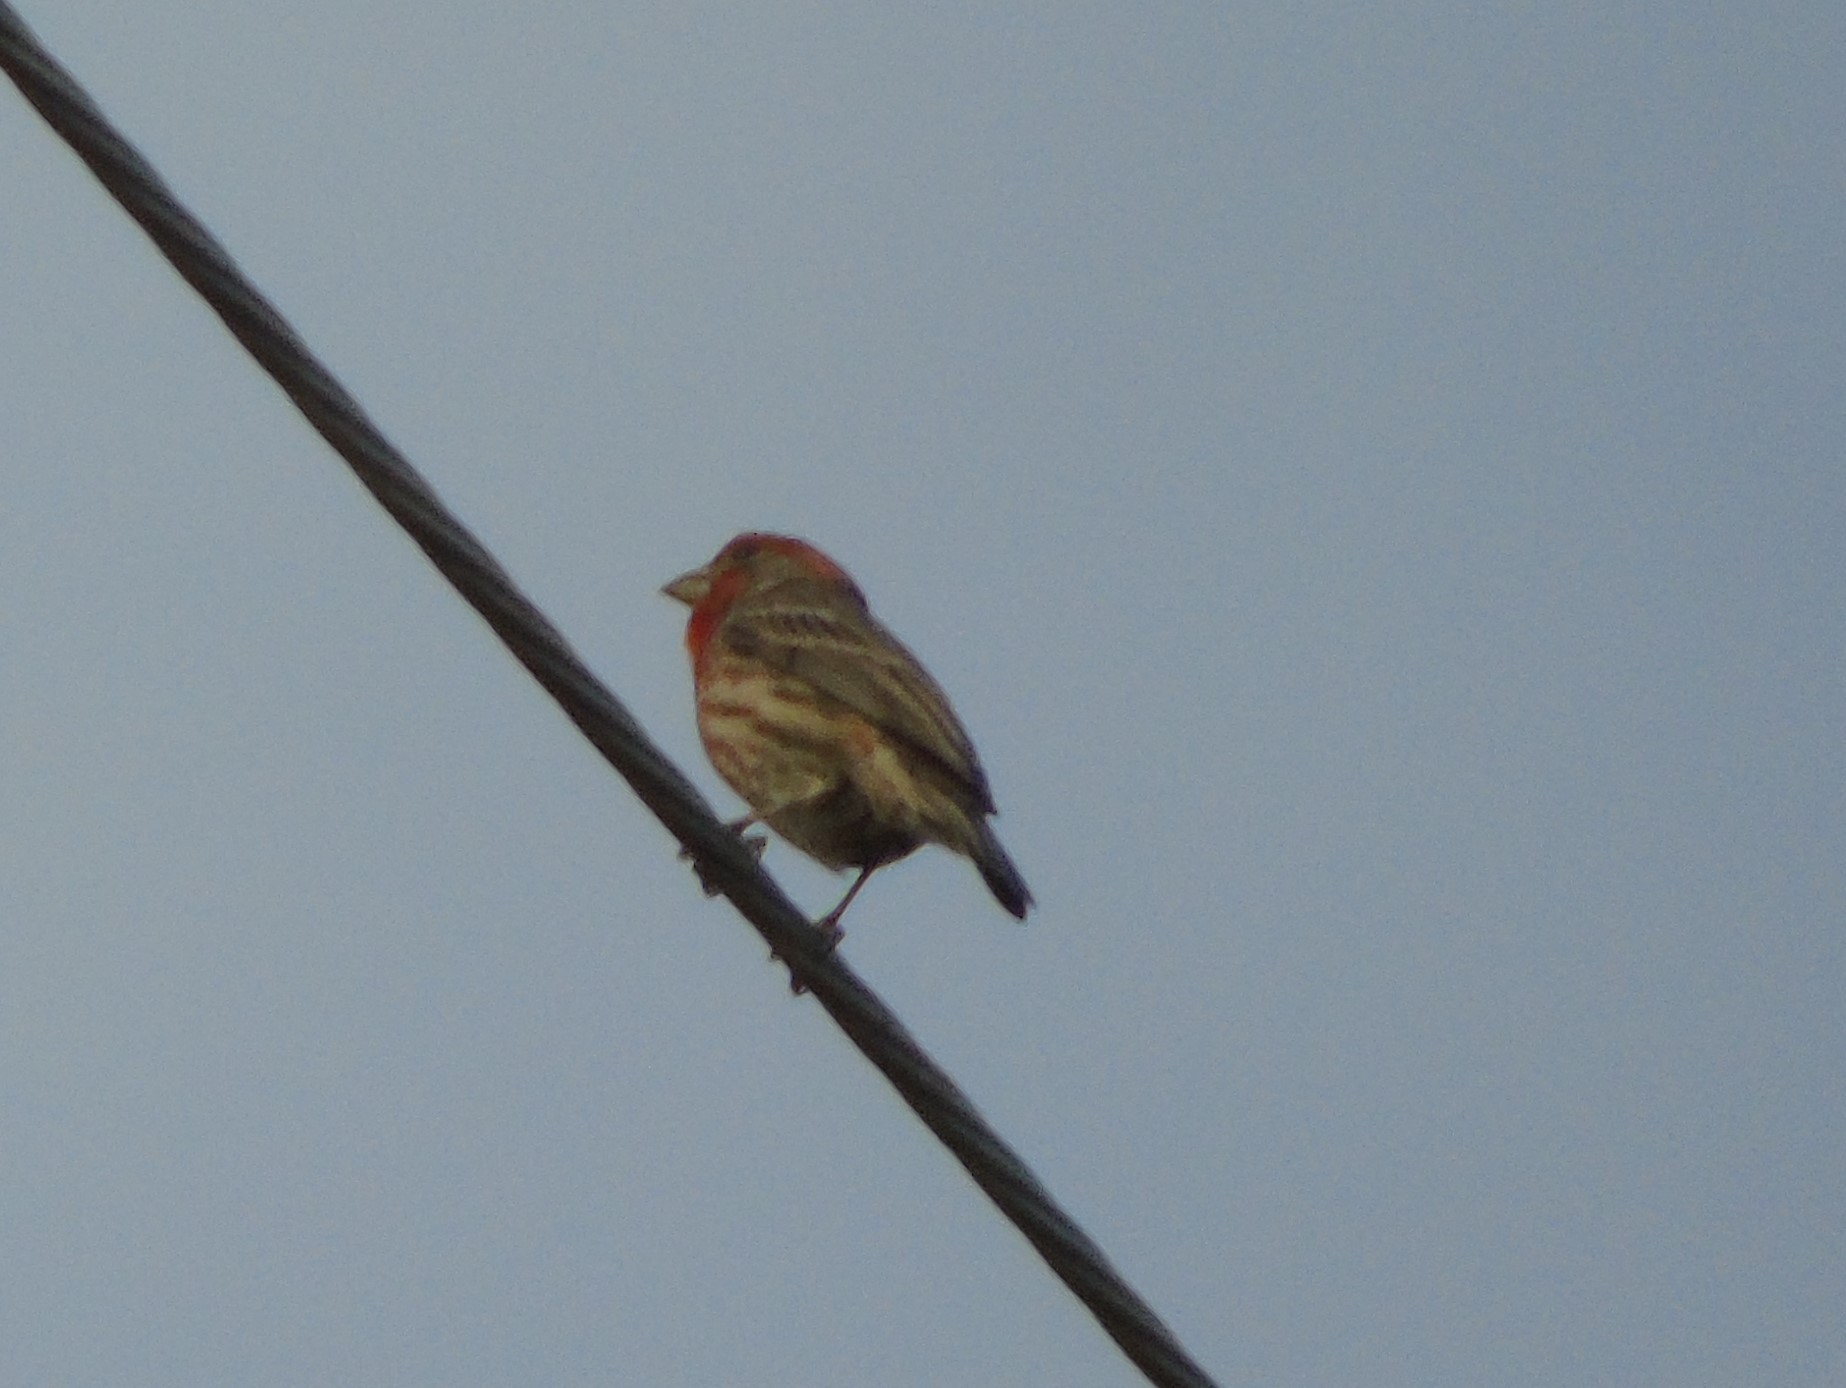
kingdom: Animalia
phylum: Chordata
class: Aves
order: Passeriformes
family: Fringillidae
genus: Haemorhous
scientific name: Haemorhous mexicanus
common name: House finch
